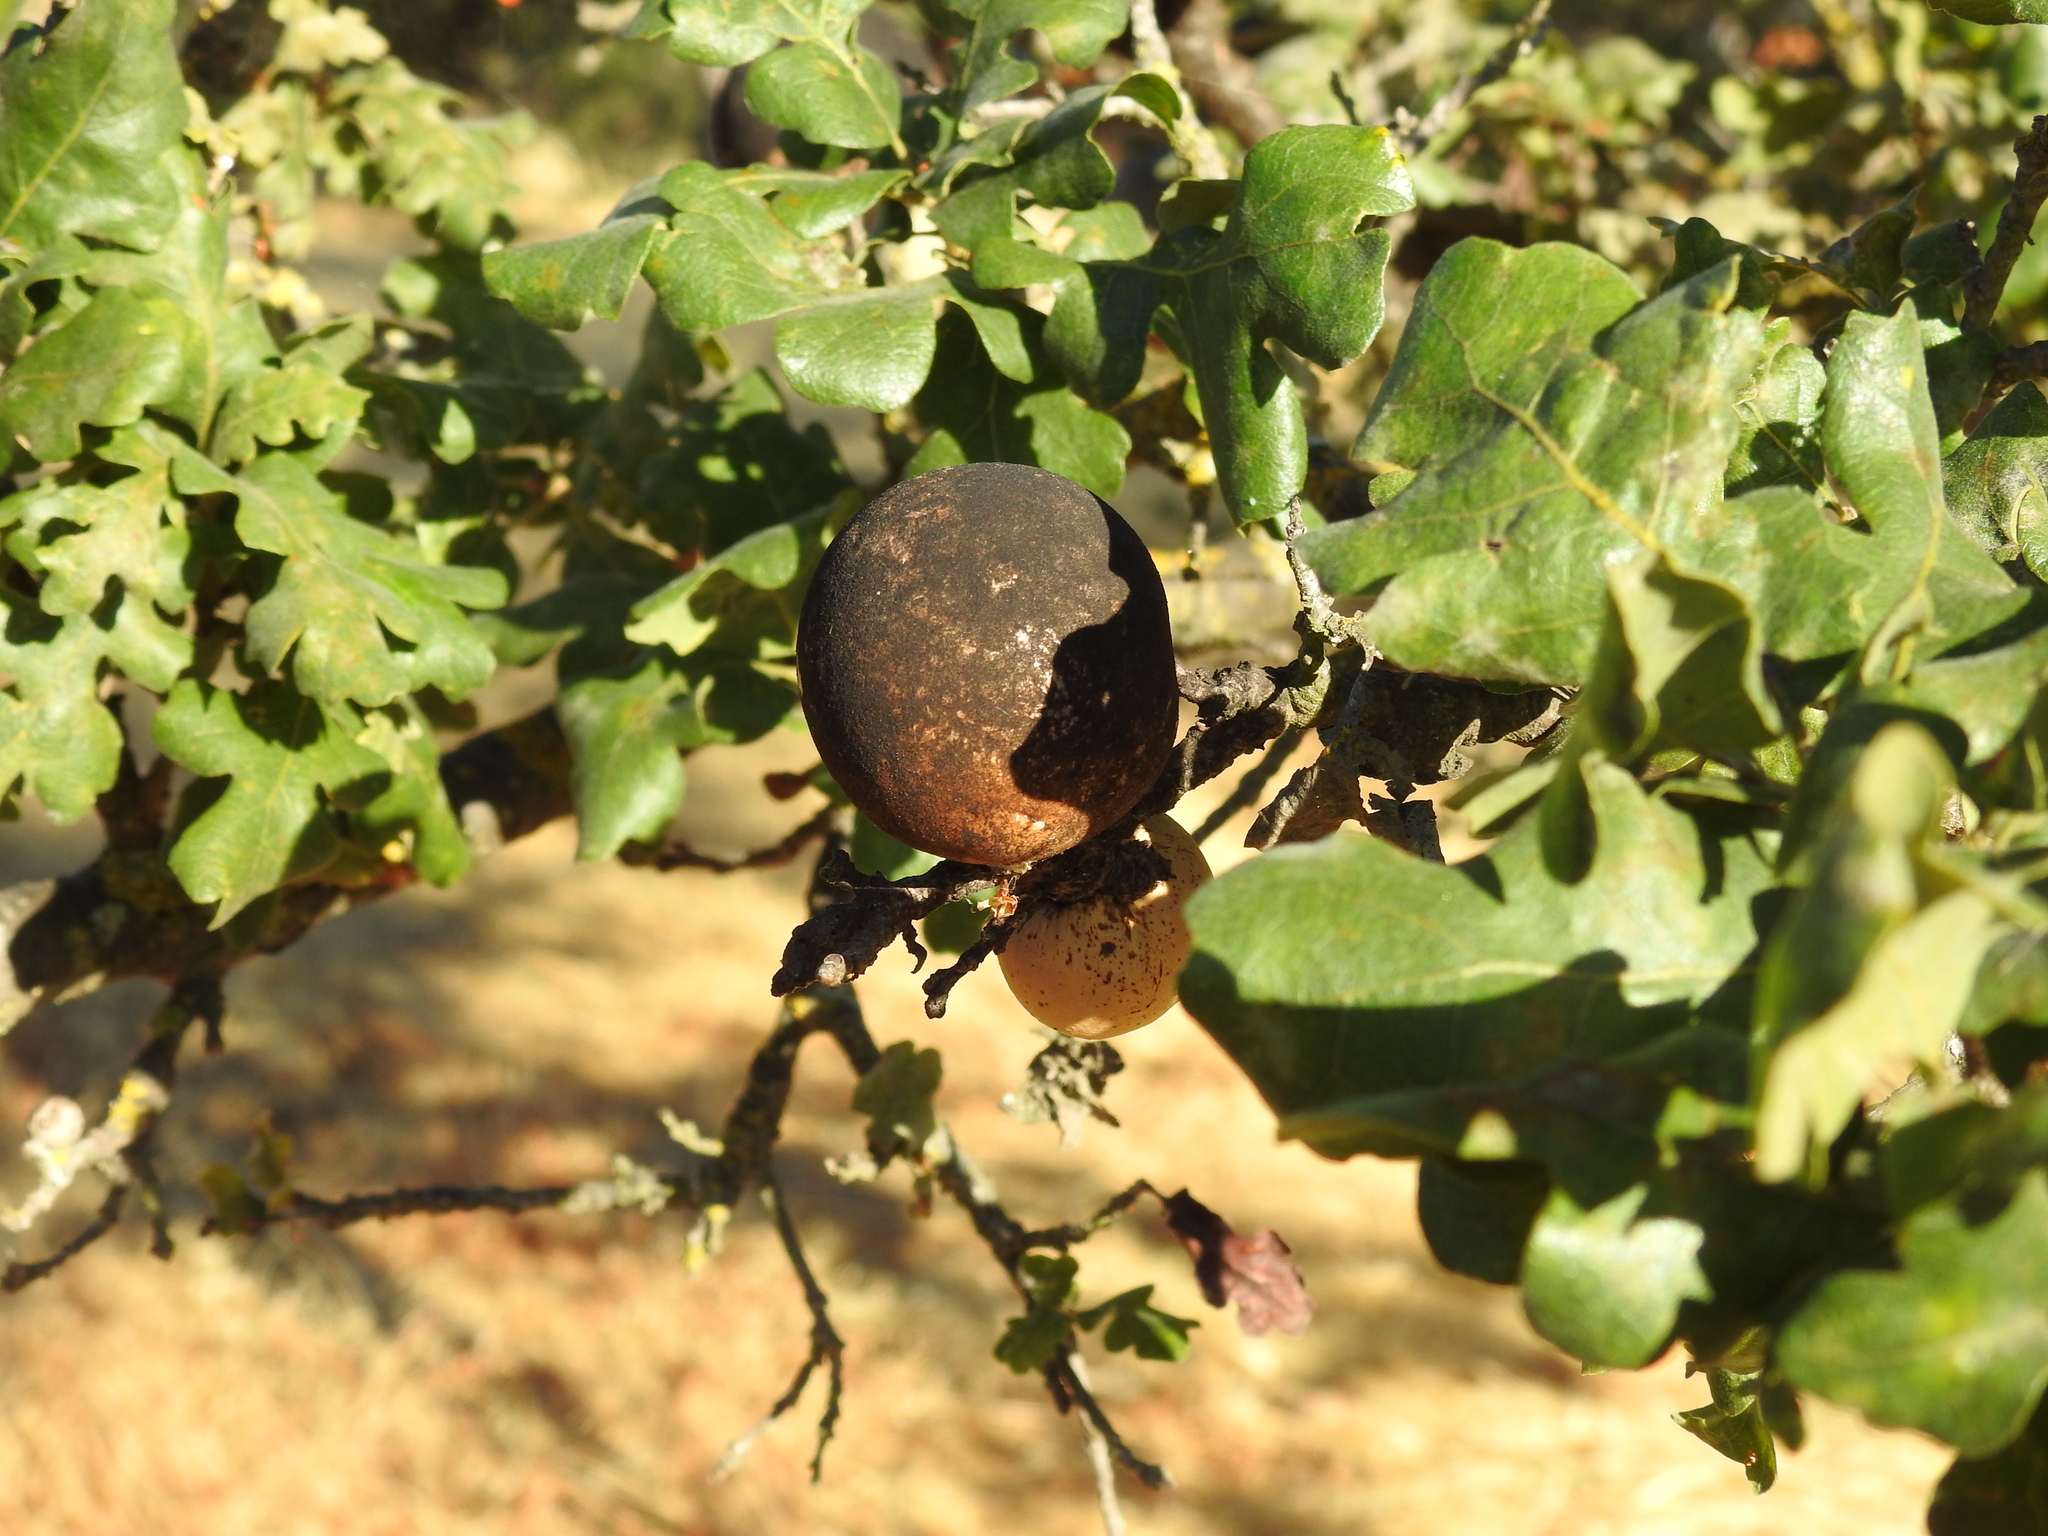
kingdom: Animalia
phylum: Arthropoda
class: Insecta
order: Hymenoptera
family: Cynipidae
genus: Andricus
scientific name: Andricus quercuscalifornicus
